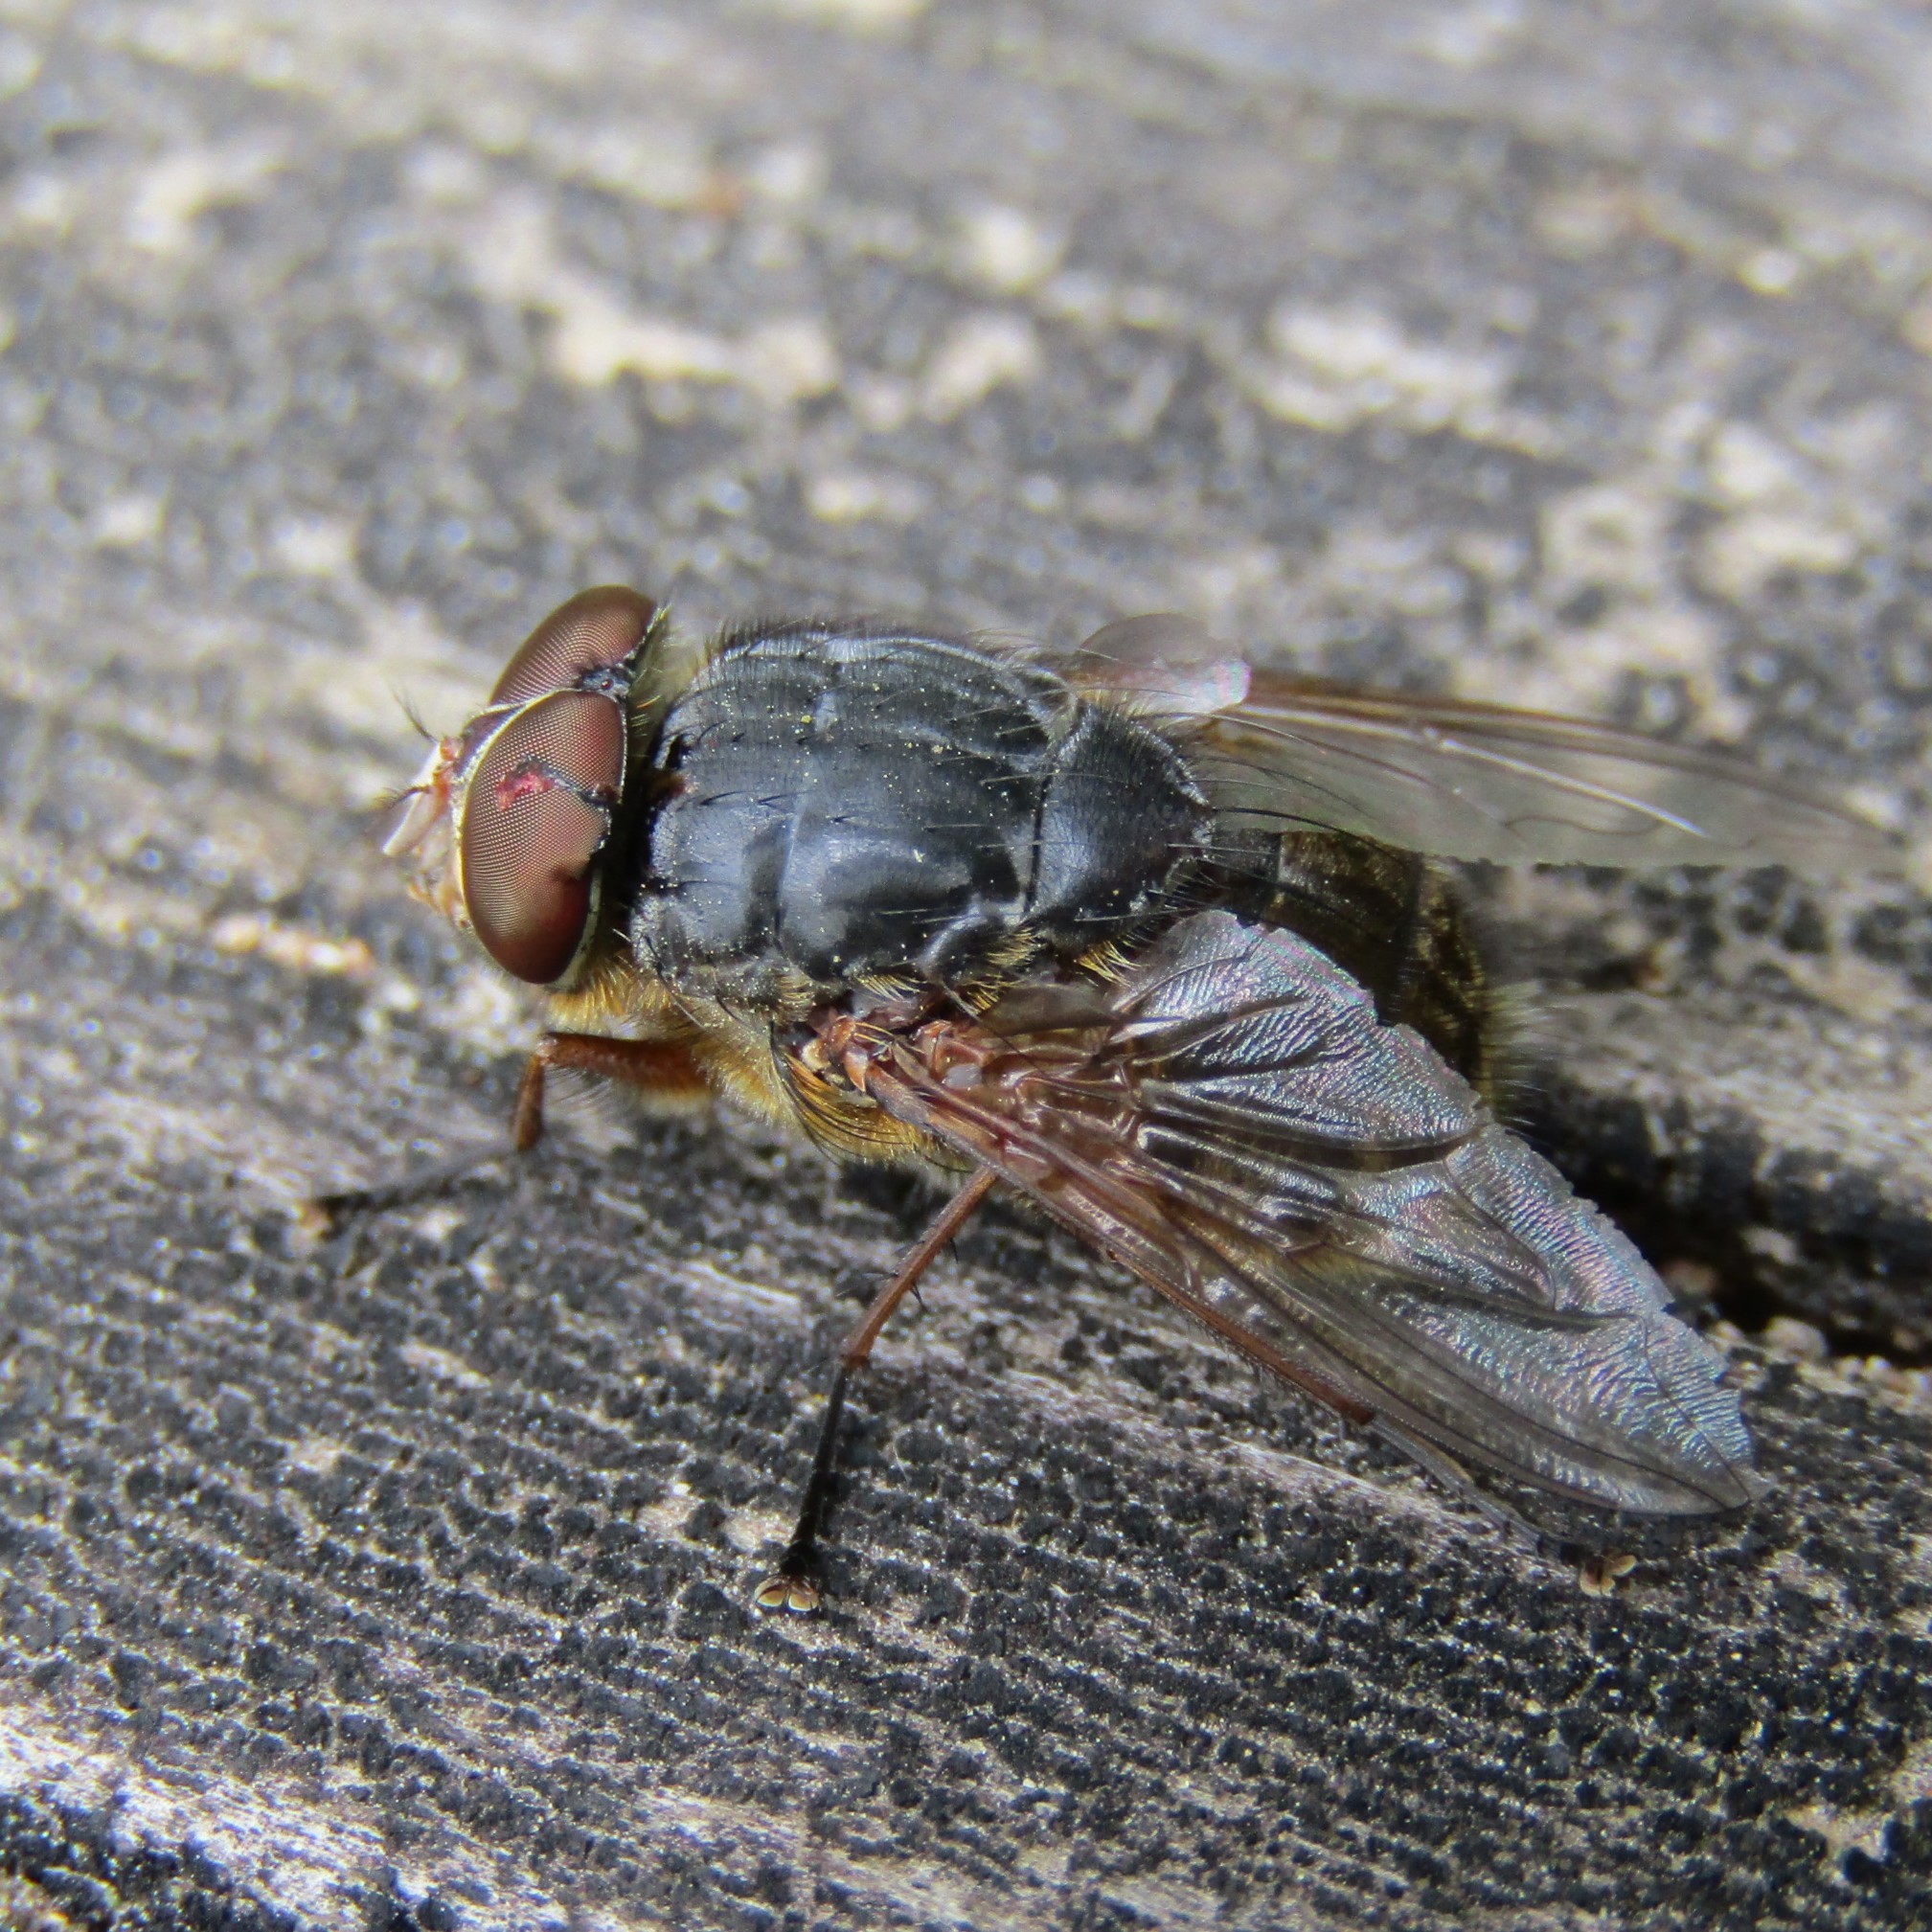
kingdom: Animalia
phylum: Arthropoda
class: Insecta
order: Diptera
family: Calliphoridae
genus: Calliphora
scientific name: Calliphora stygia
